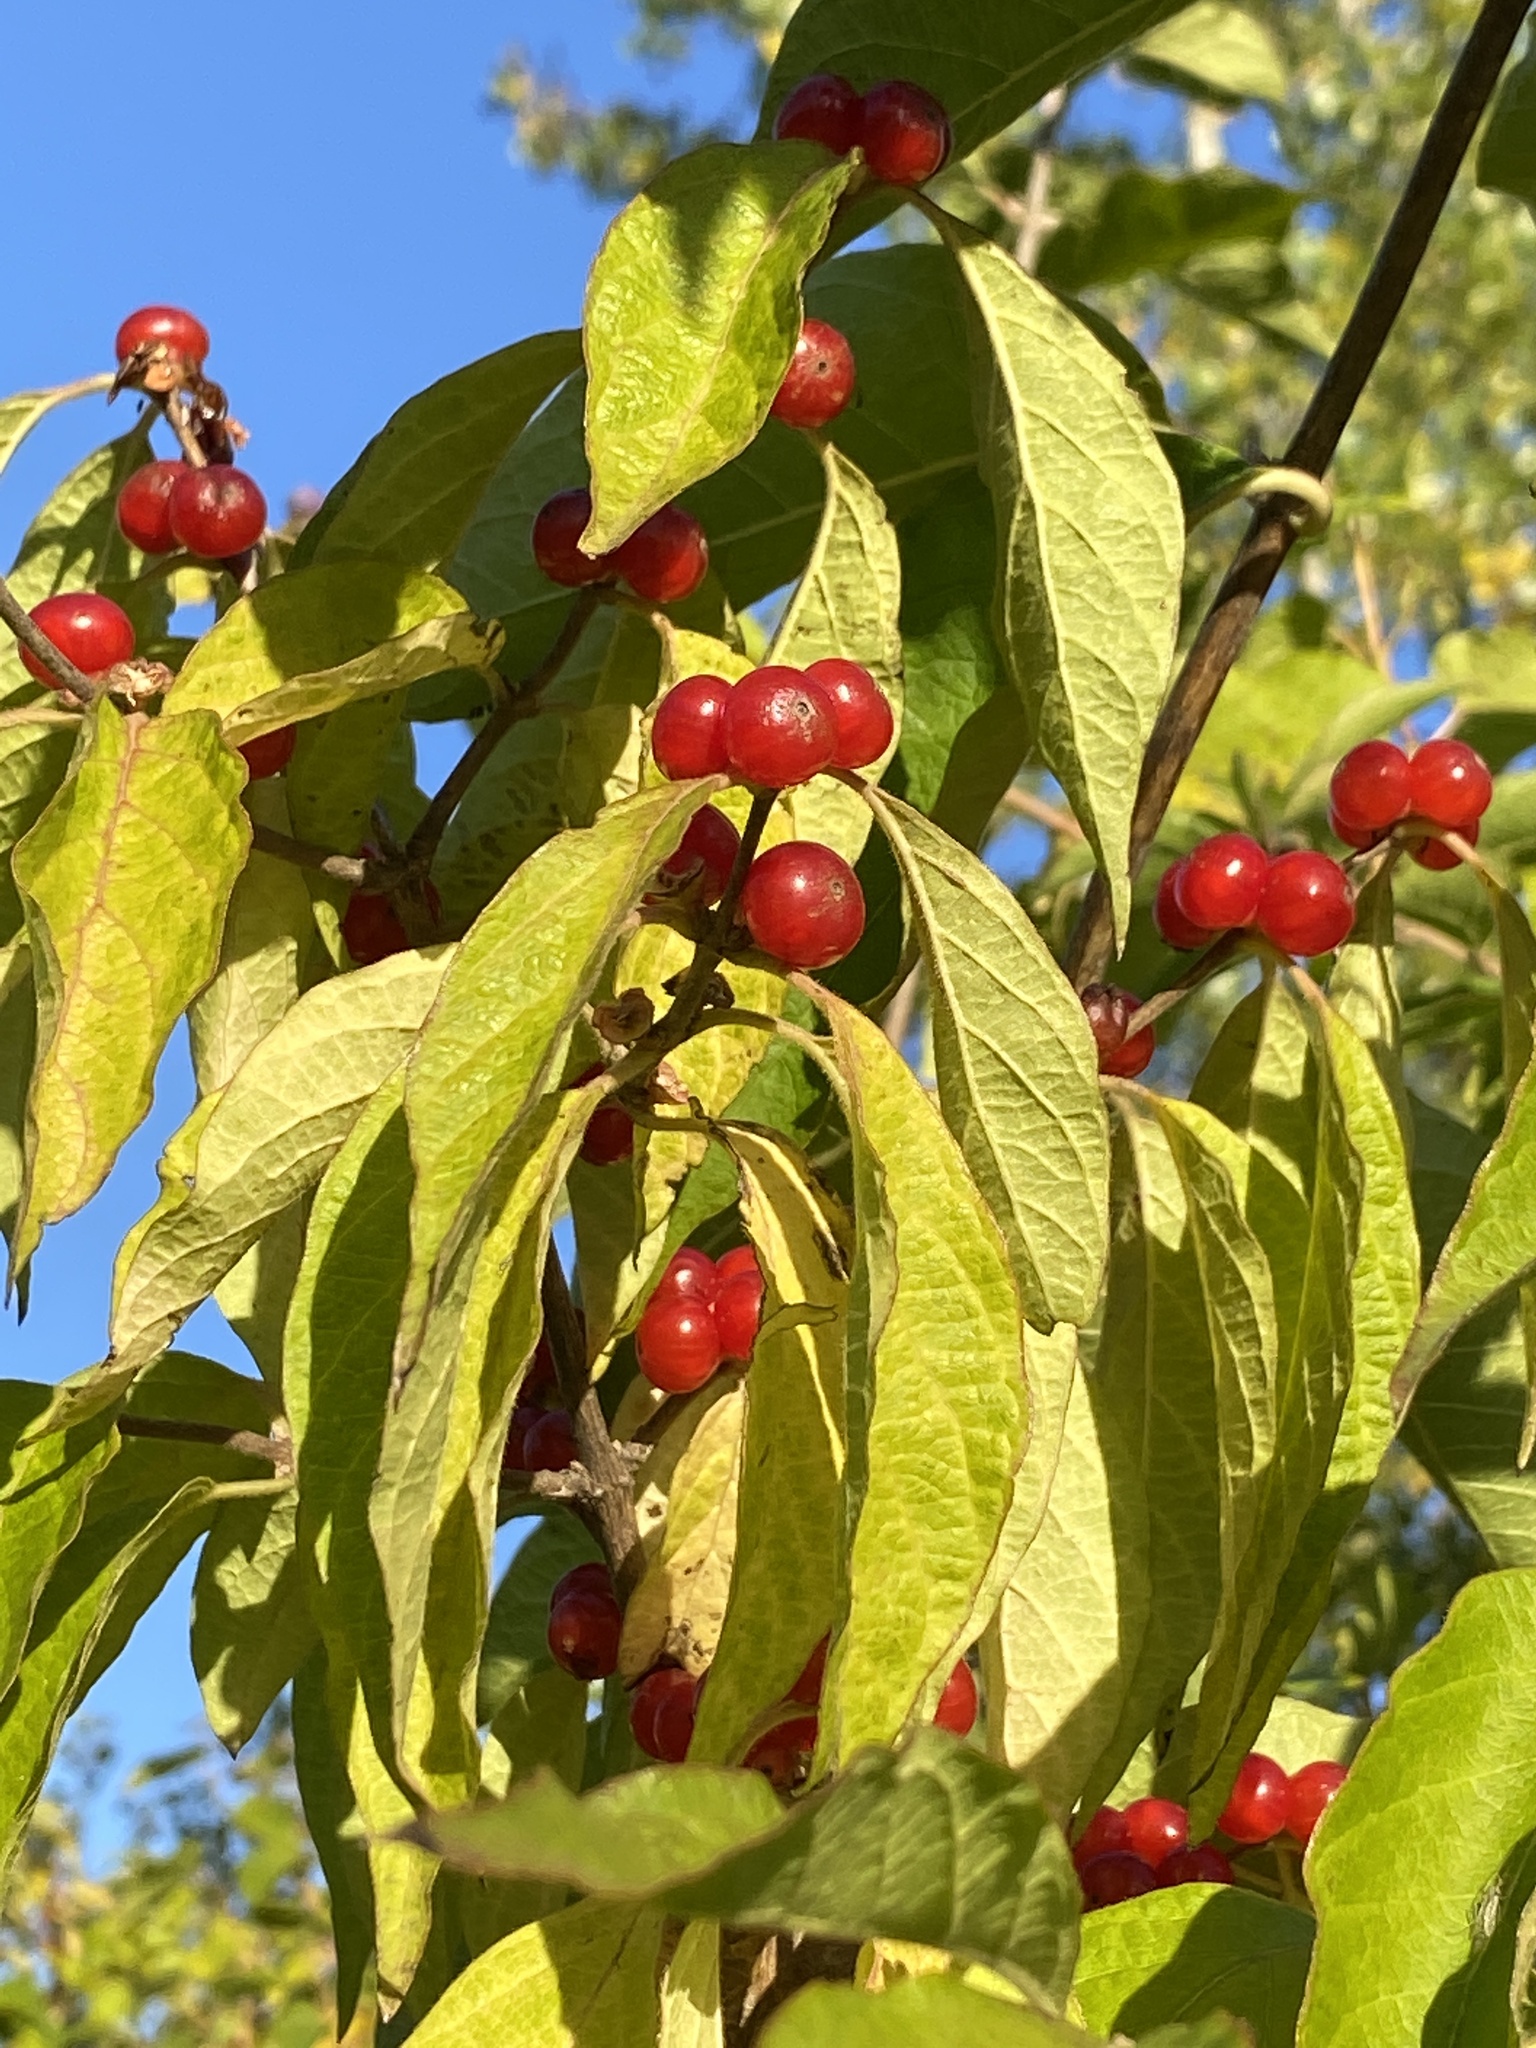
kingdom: Plantae
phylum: Tracheophyta
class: Magnoliopsida
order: Dipsacales
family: Caprifoliaceae
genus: Lonicera
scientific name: Lonicera maackii
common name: Amur honeysuckle
